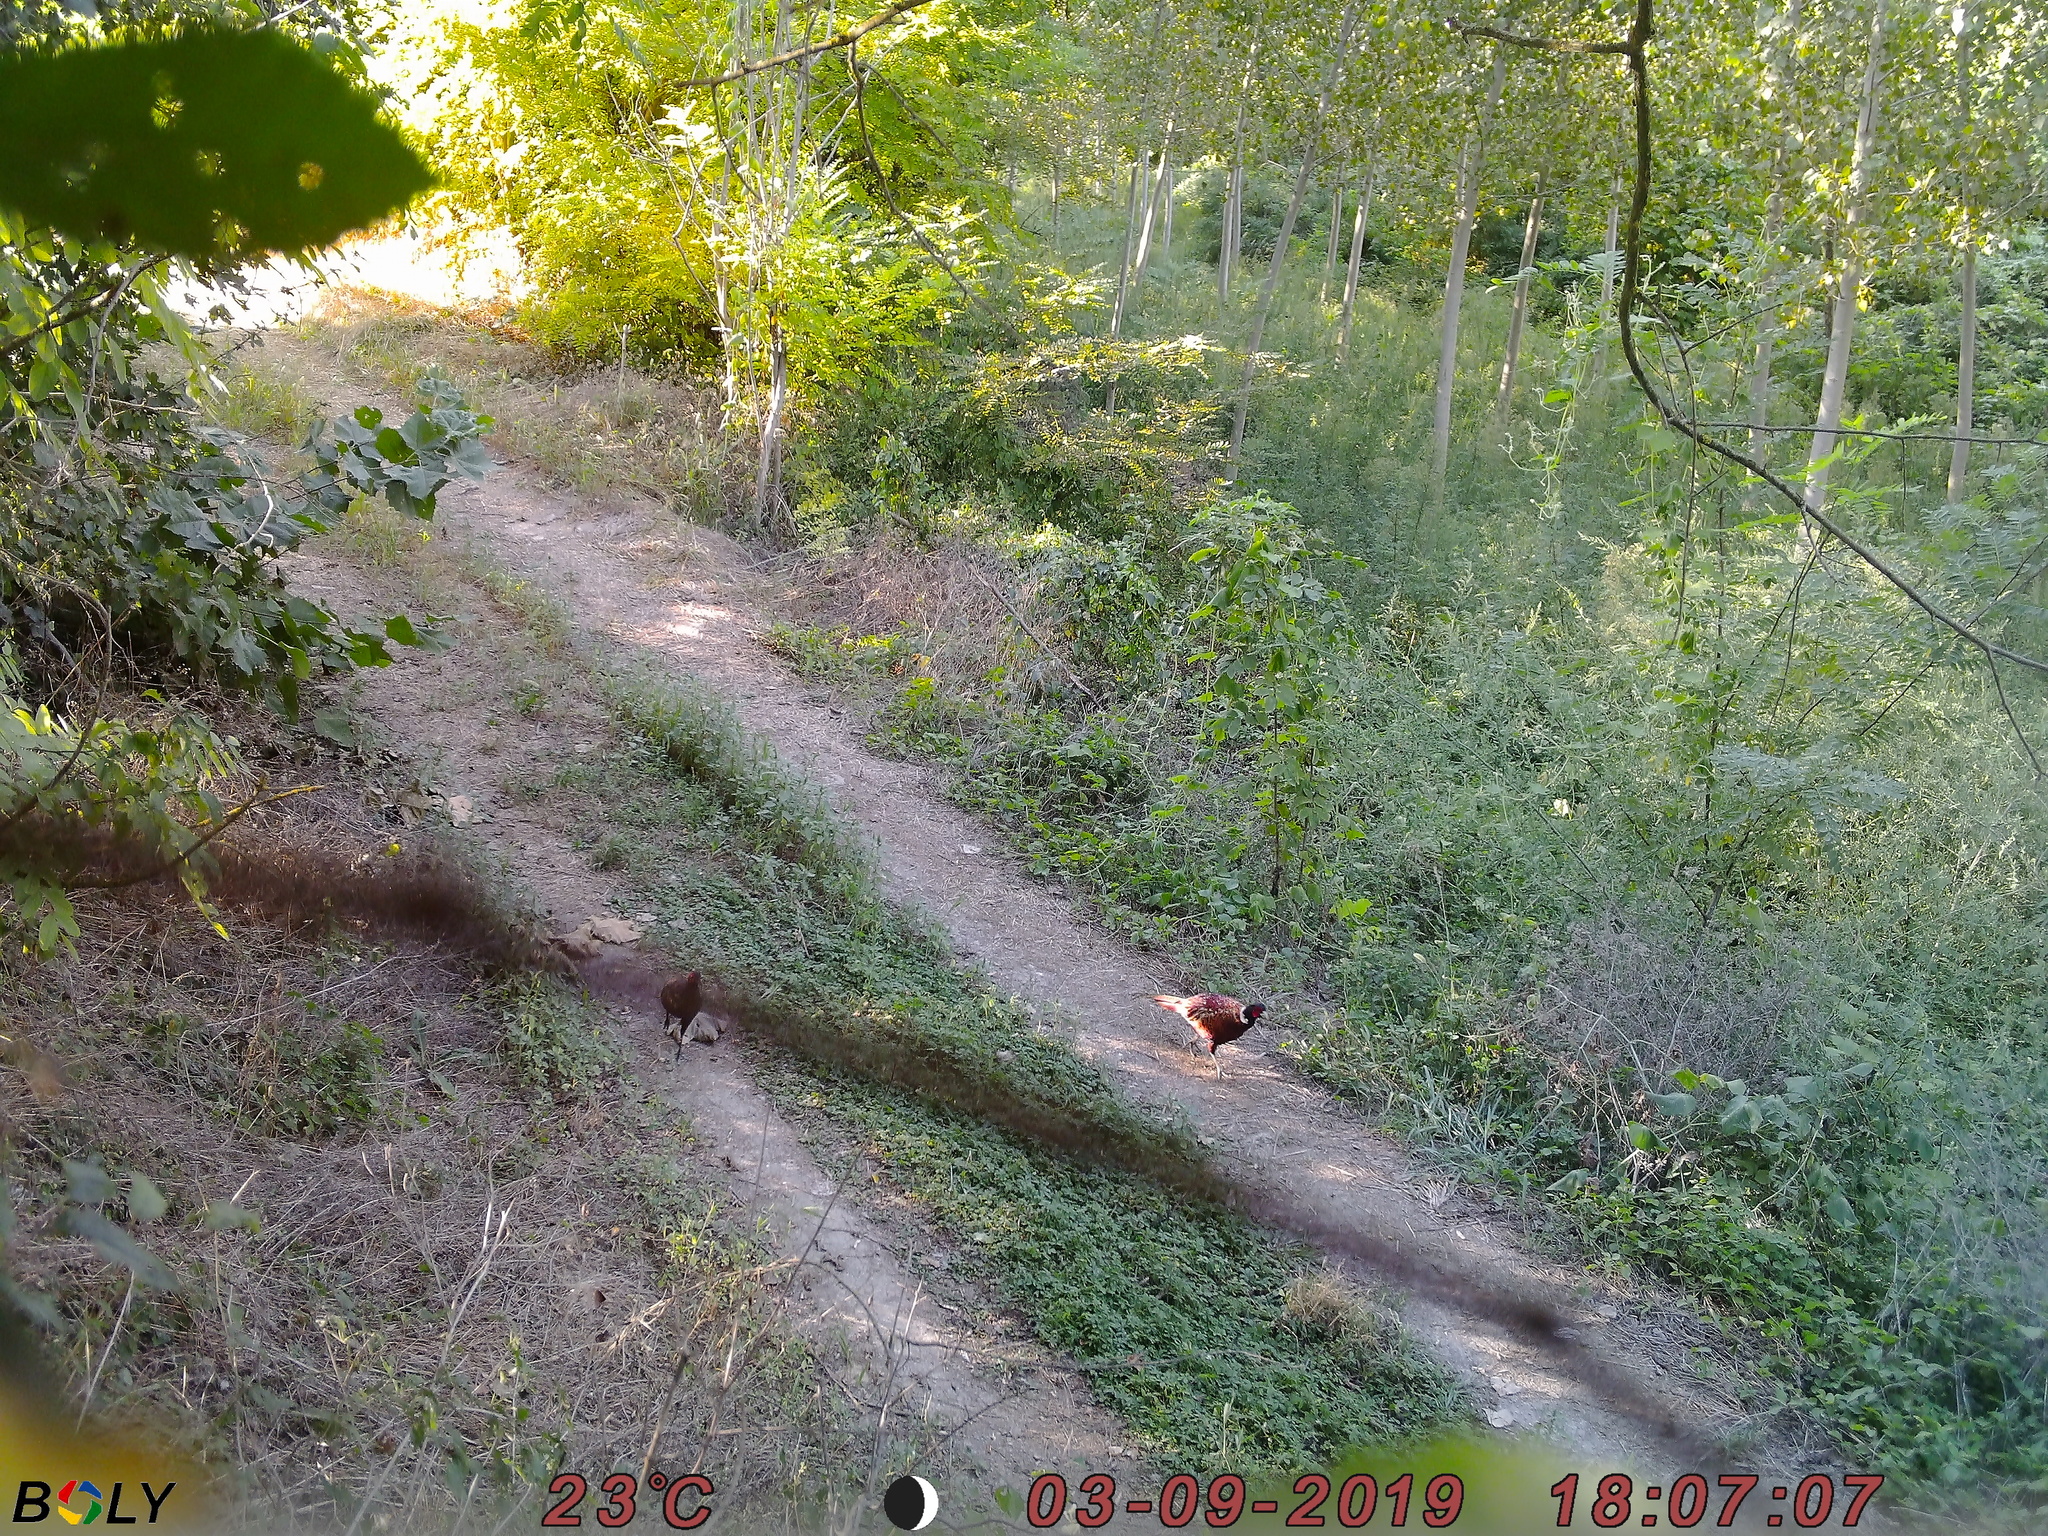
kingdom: Animalia
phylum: Chordata
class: Aves
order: Galliformes
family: Phasianidae
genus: Phasianus
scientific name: Phasianus colchicus
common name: Common pheasant
